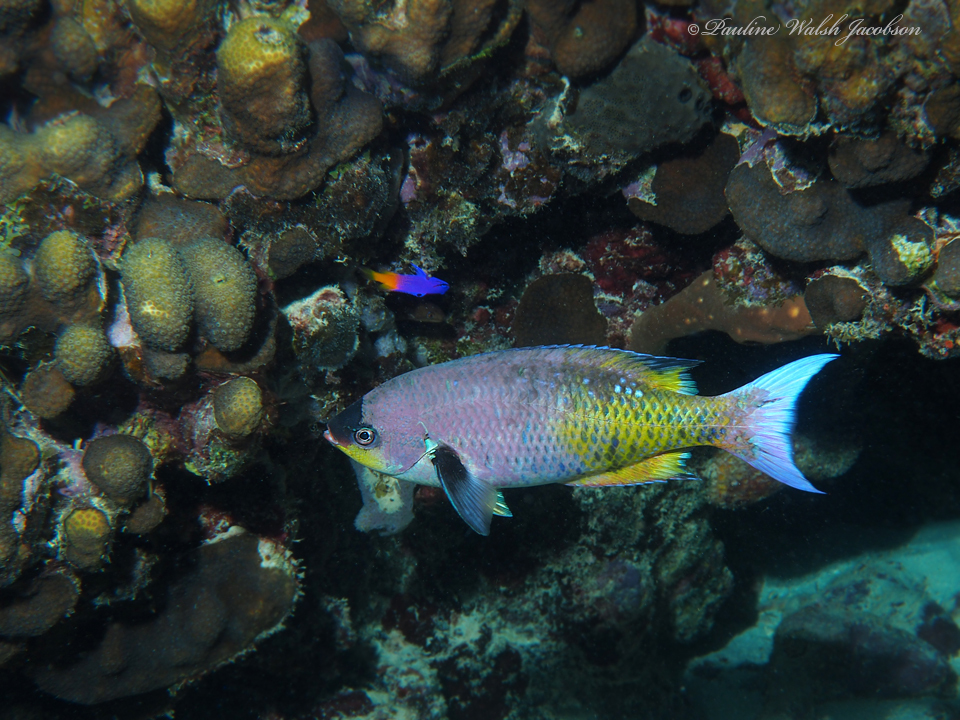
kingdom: Animalia
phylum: Chordata
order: Perciformes
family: Labridae
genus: Bodianus
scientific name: Bodianus
